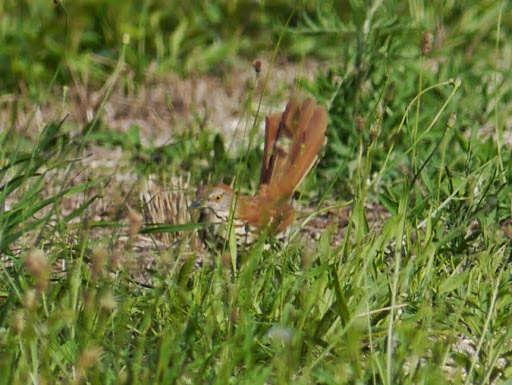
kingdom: Animalia
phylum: Chordata
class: Aves
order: Passeriformes
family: Mimidae
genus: Toxostoma
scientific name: Toxostoma rufum
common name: Brown thrasher
